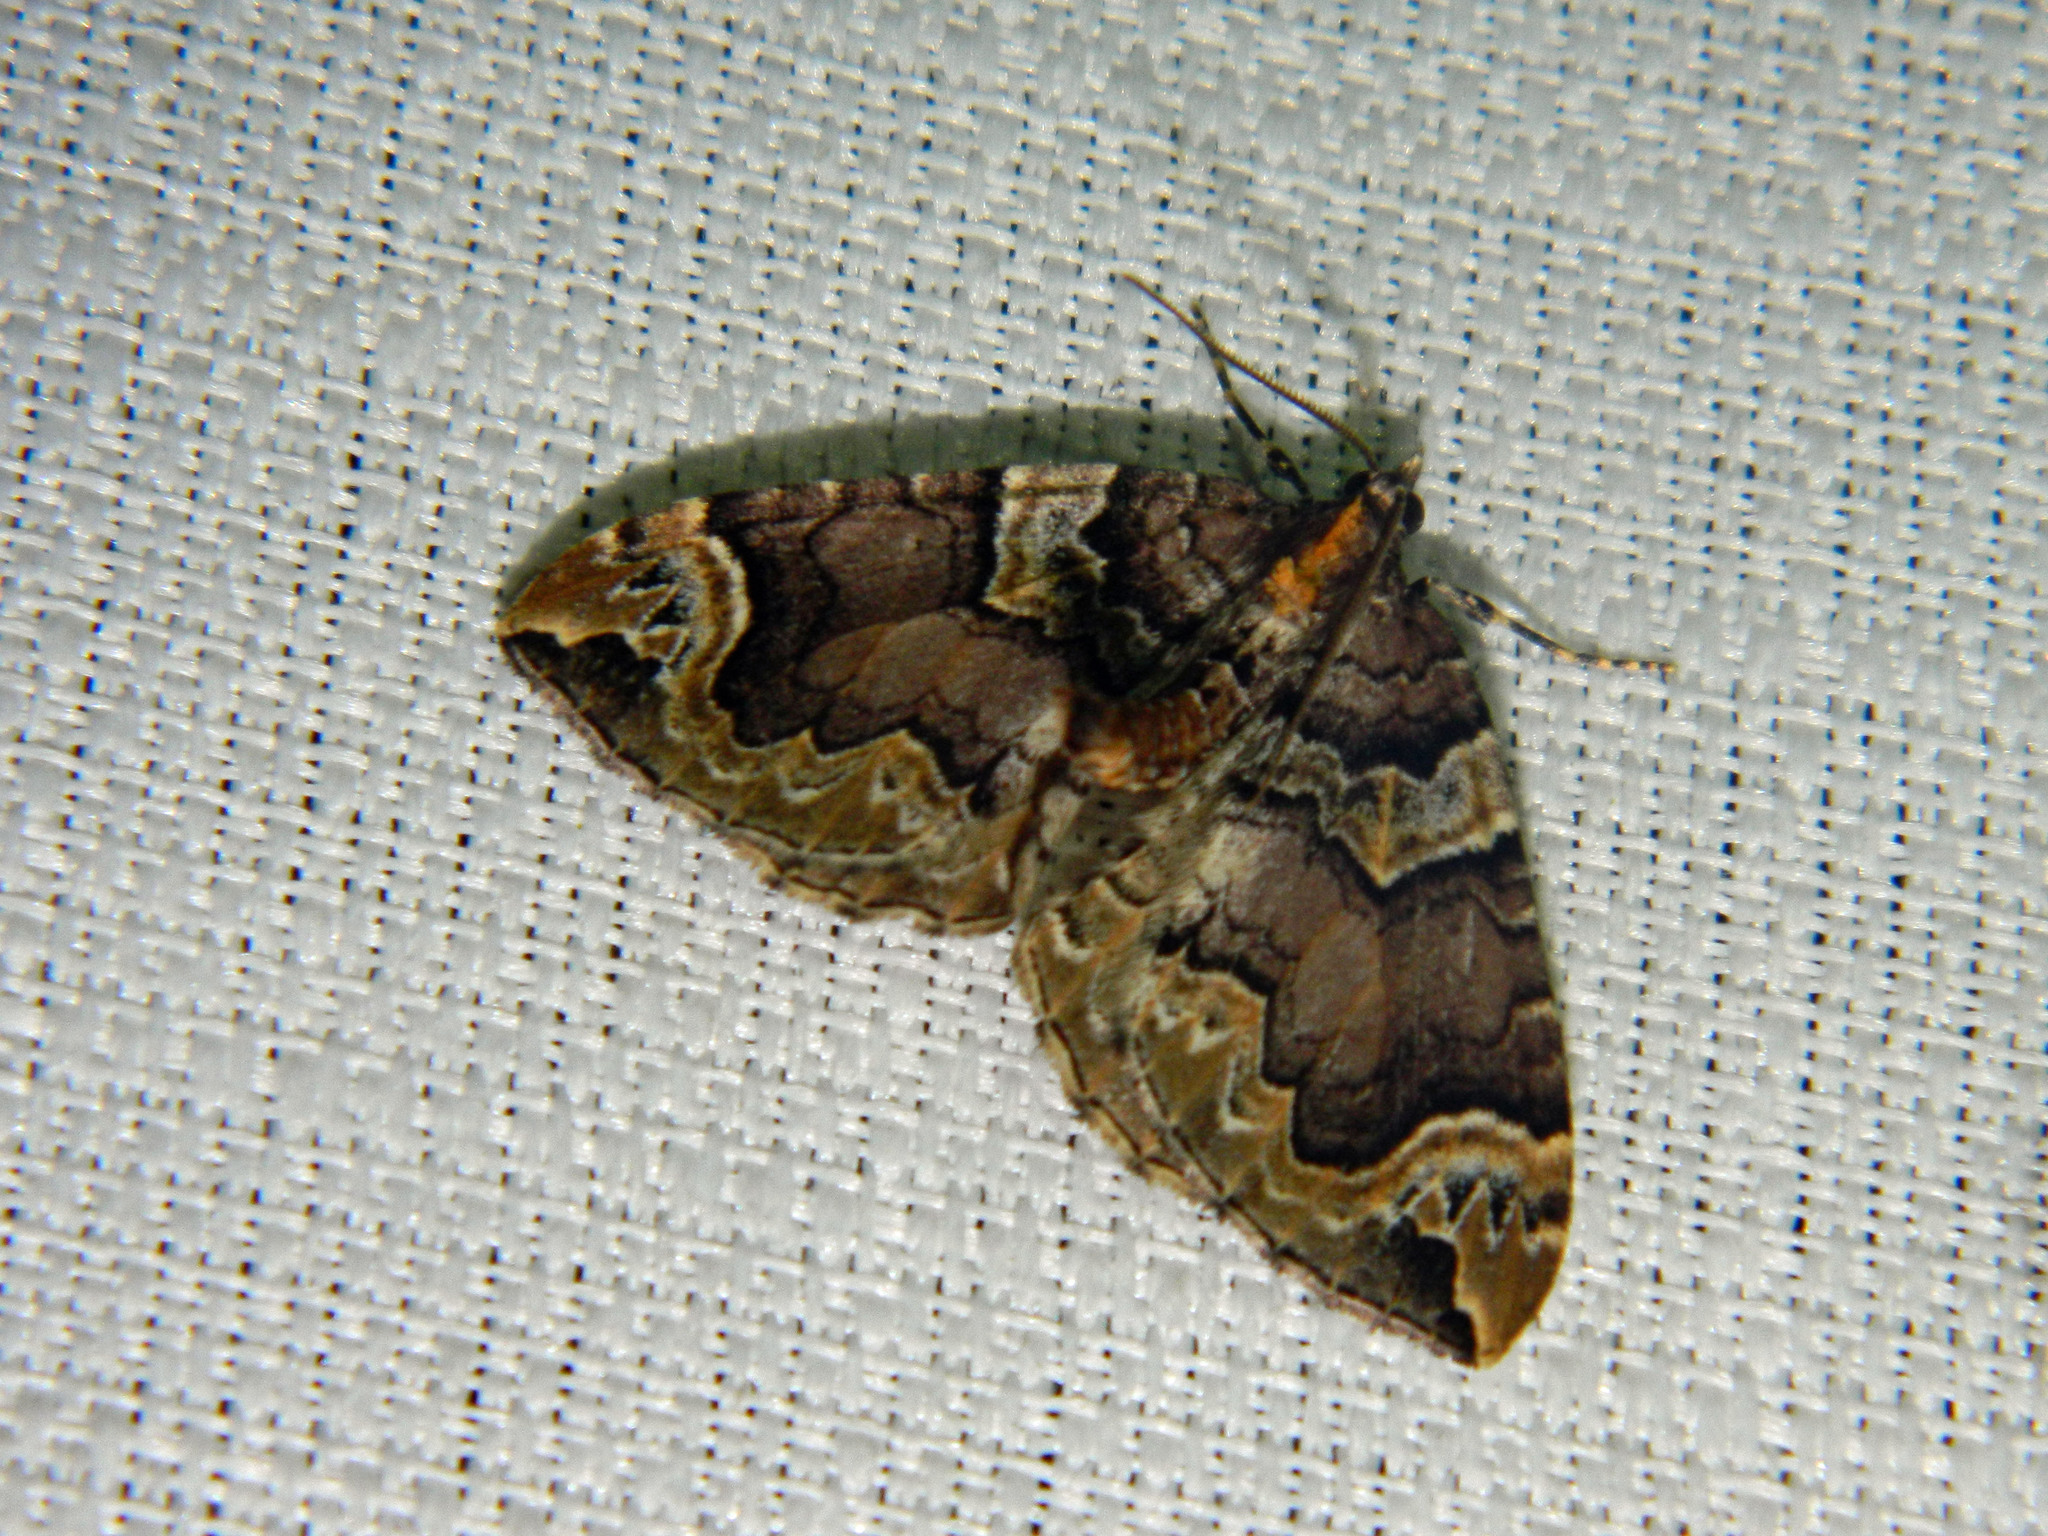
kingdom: Animalia
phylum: Arthropoda
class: Insecta
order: Lepidoptera
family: Geometridae
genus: Eulithis
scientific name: Eulithis serrataria
